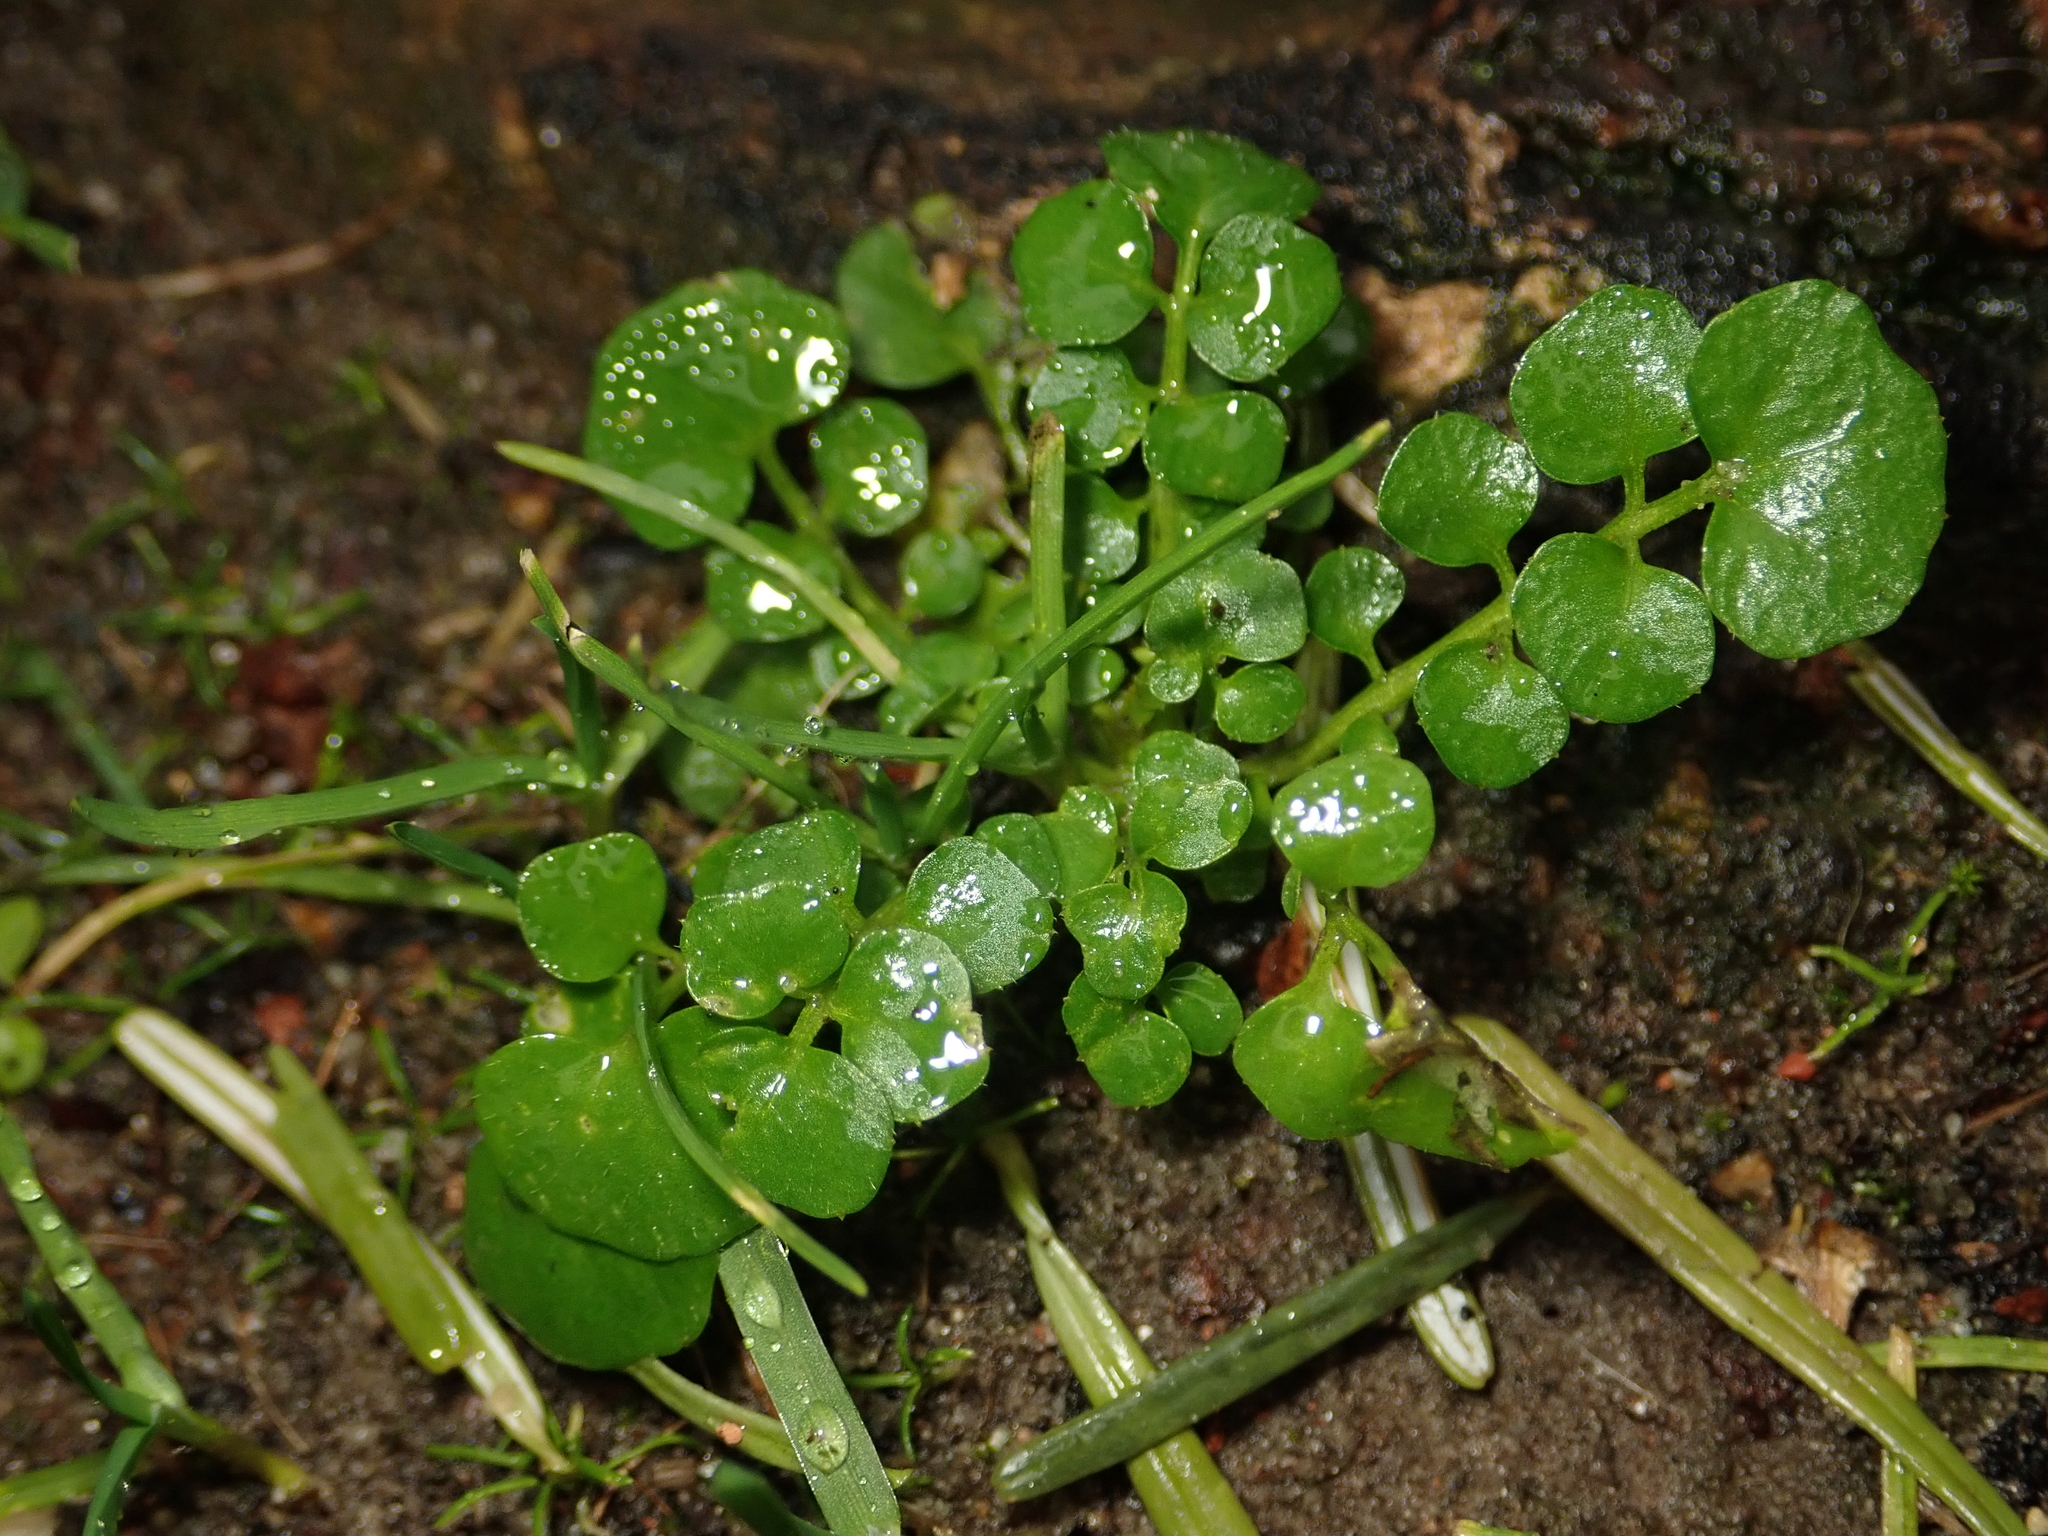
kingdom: Plantae
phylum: Tracheophyta
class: Magnoliopsida
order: Brassicales
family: Brassicaceae
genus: Cardamine
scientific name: Cardamine hirsuta
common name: Hairy bittercress
